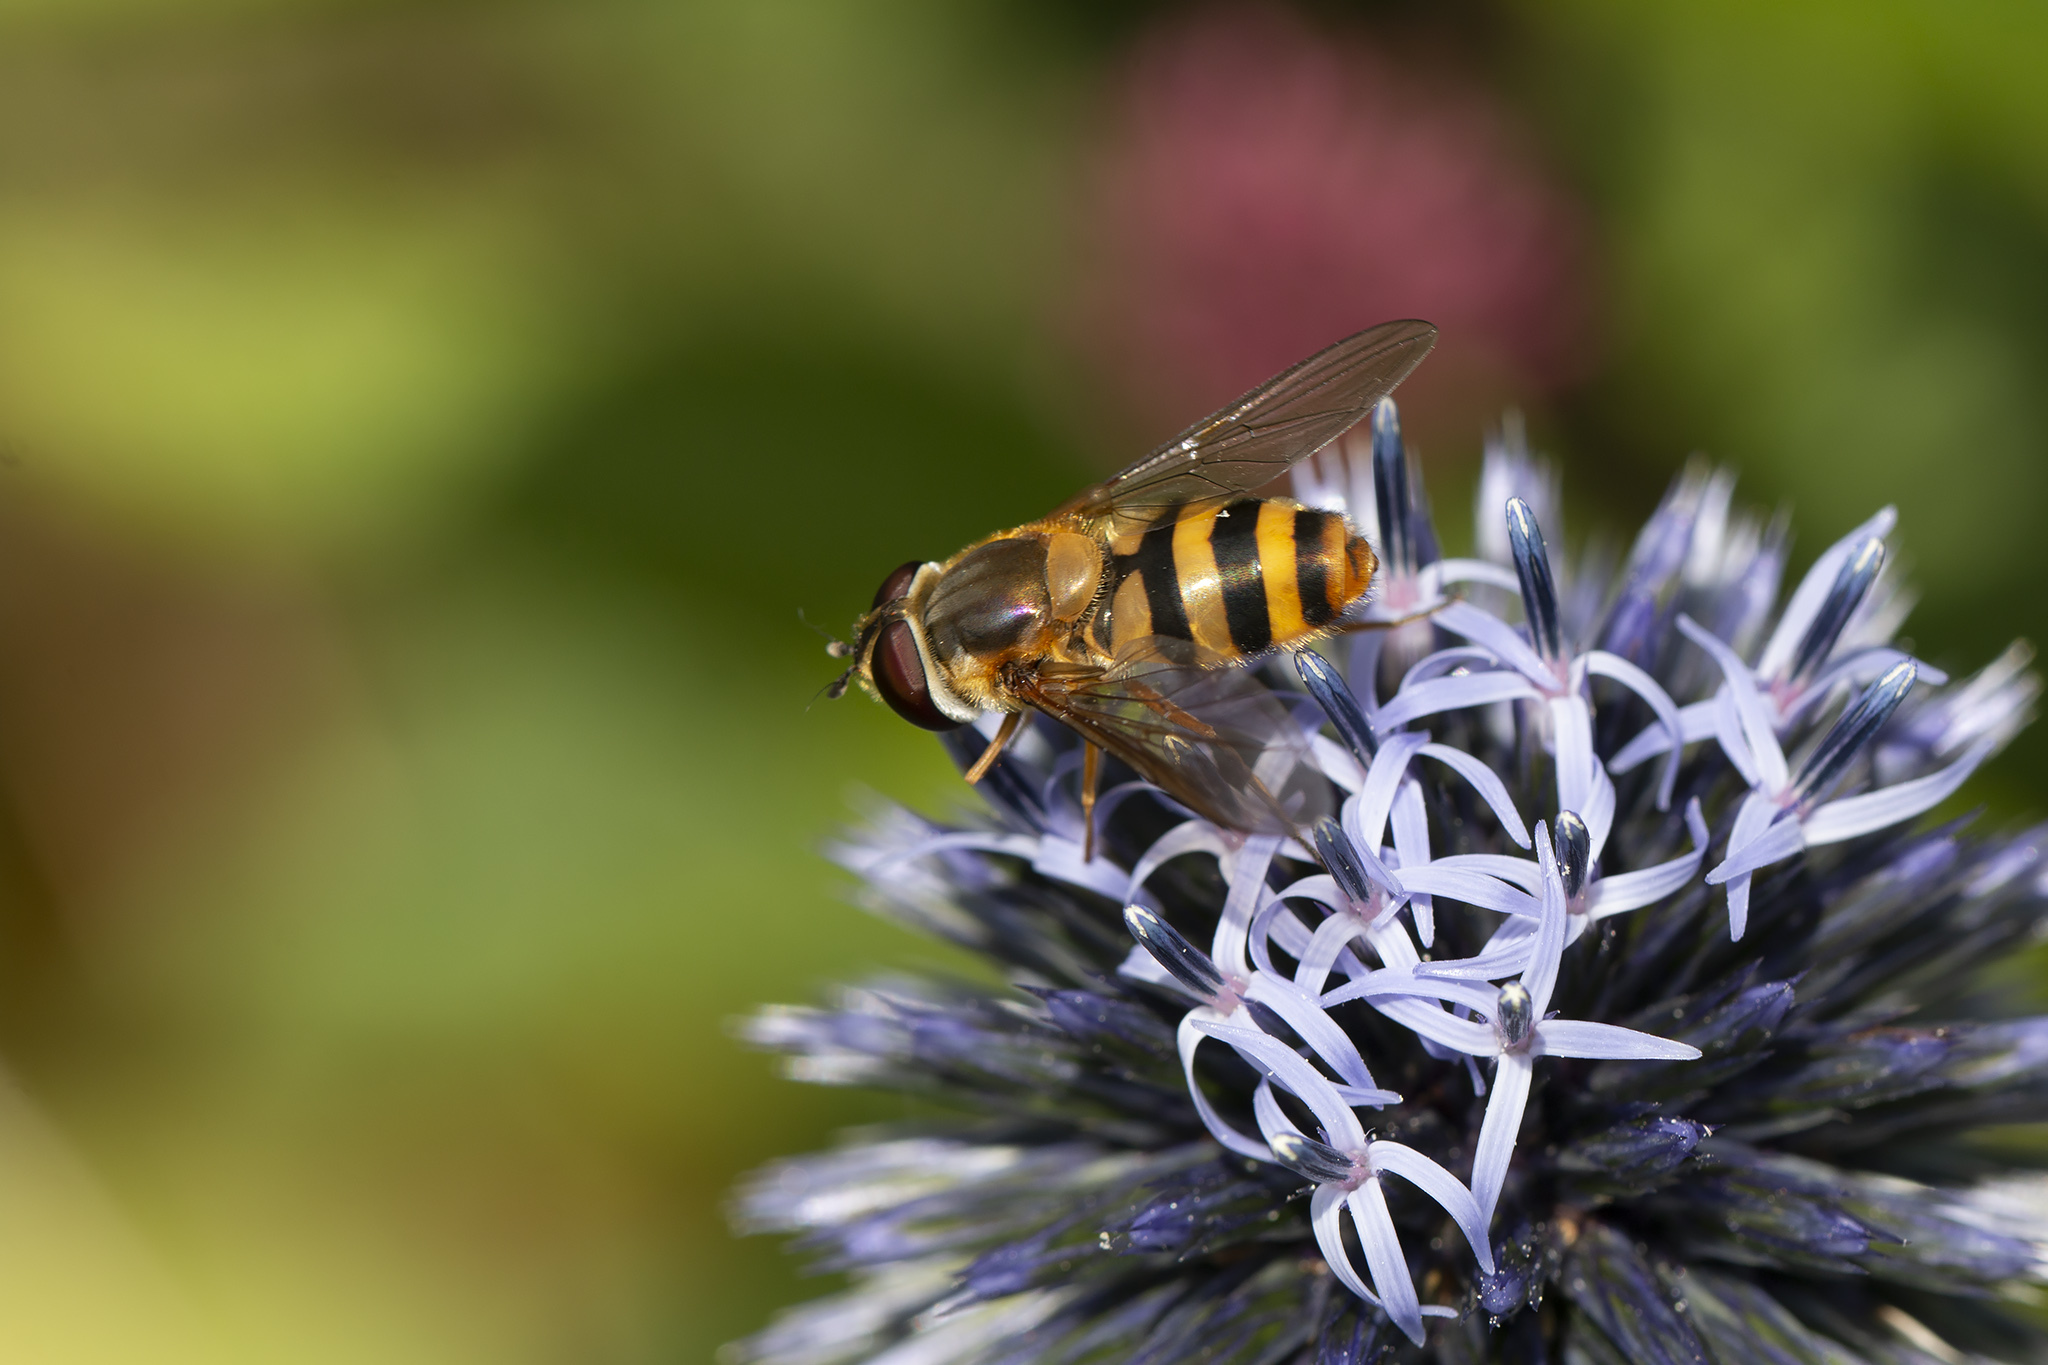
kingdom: Animalia
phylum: Arthropoda
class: Insecta
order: Diptera
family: Syrphidae
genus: Epistrophe
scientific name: Epistrophe grossulariae
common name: Black-horned smoothtail
